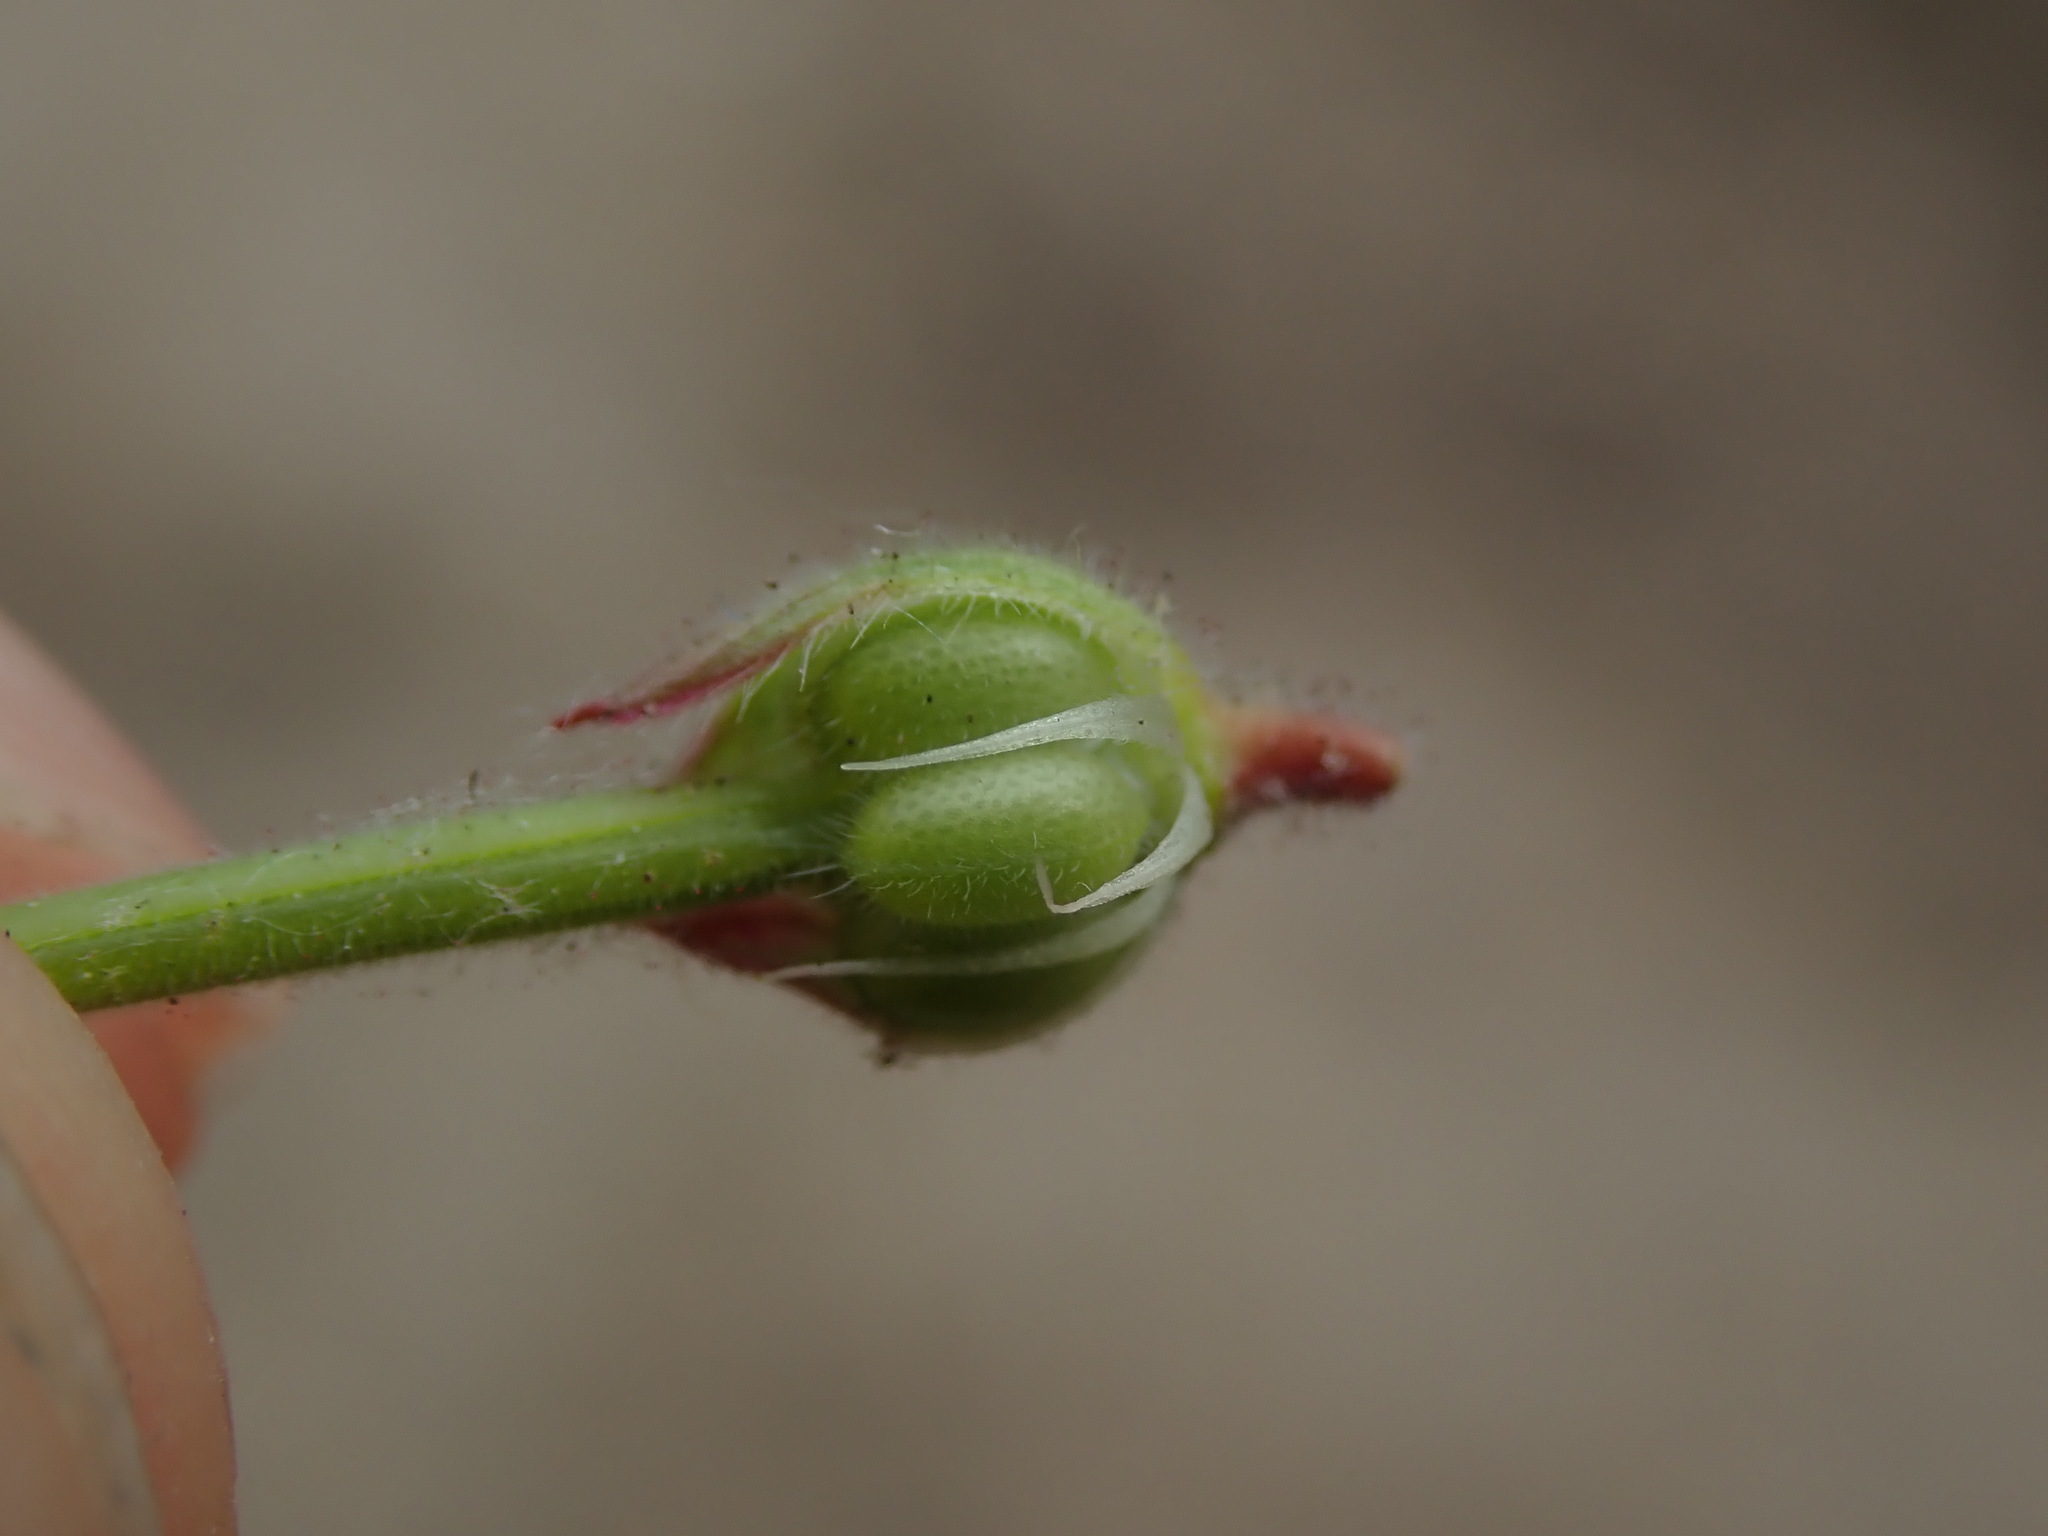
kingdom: Plantae
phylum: Tracheophyta
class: Magnoliopsida
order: Geraniales
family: Geraniaceae
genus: Geranium
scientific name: Geranium rotundifolium
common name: Round-leaved crane's-bill
